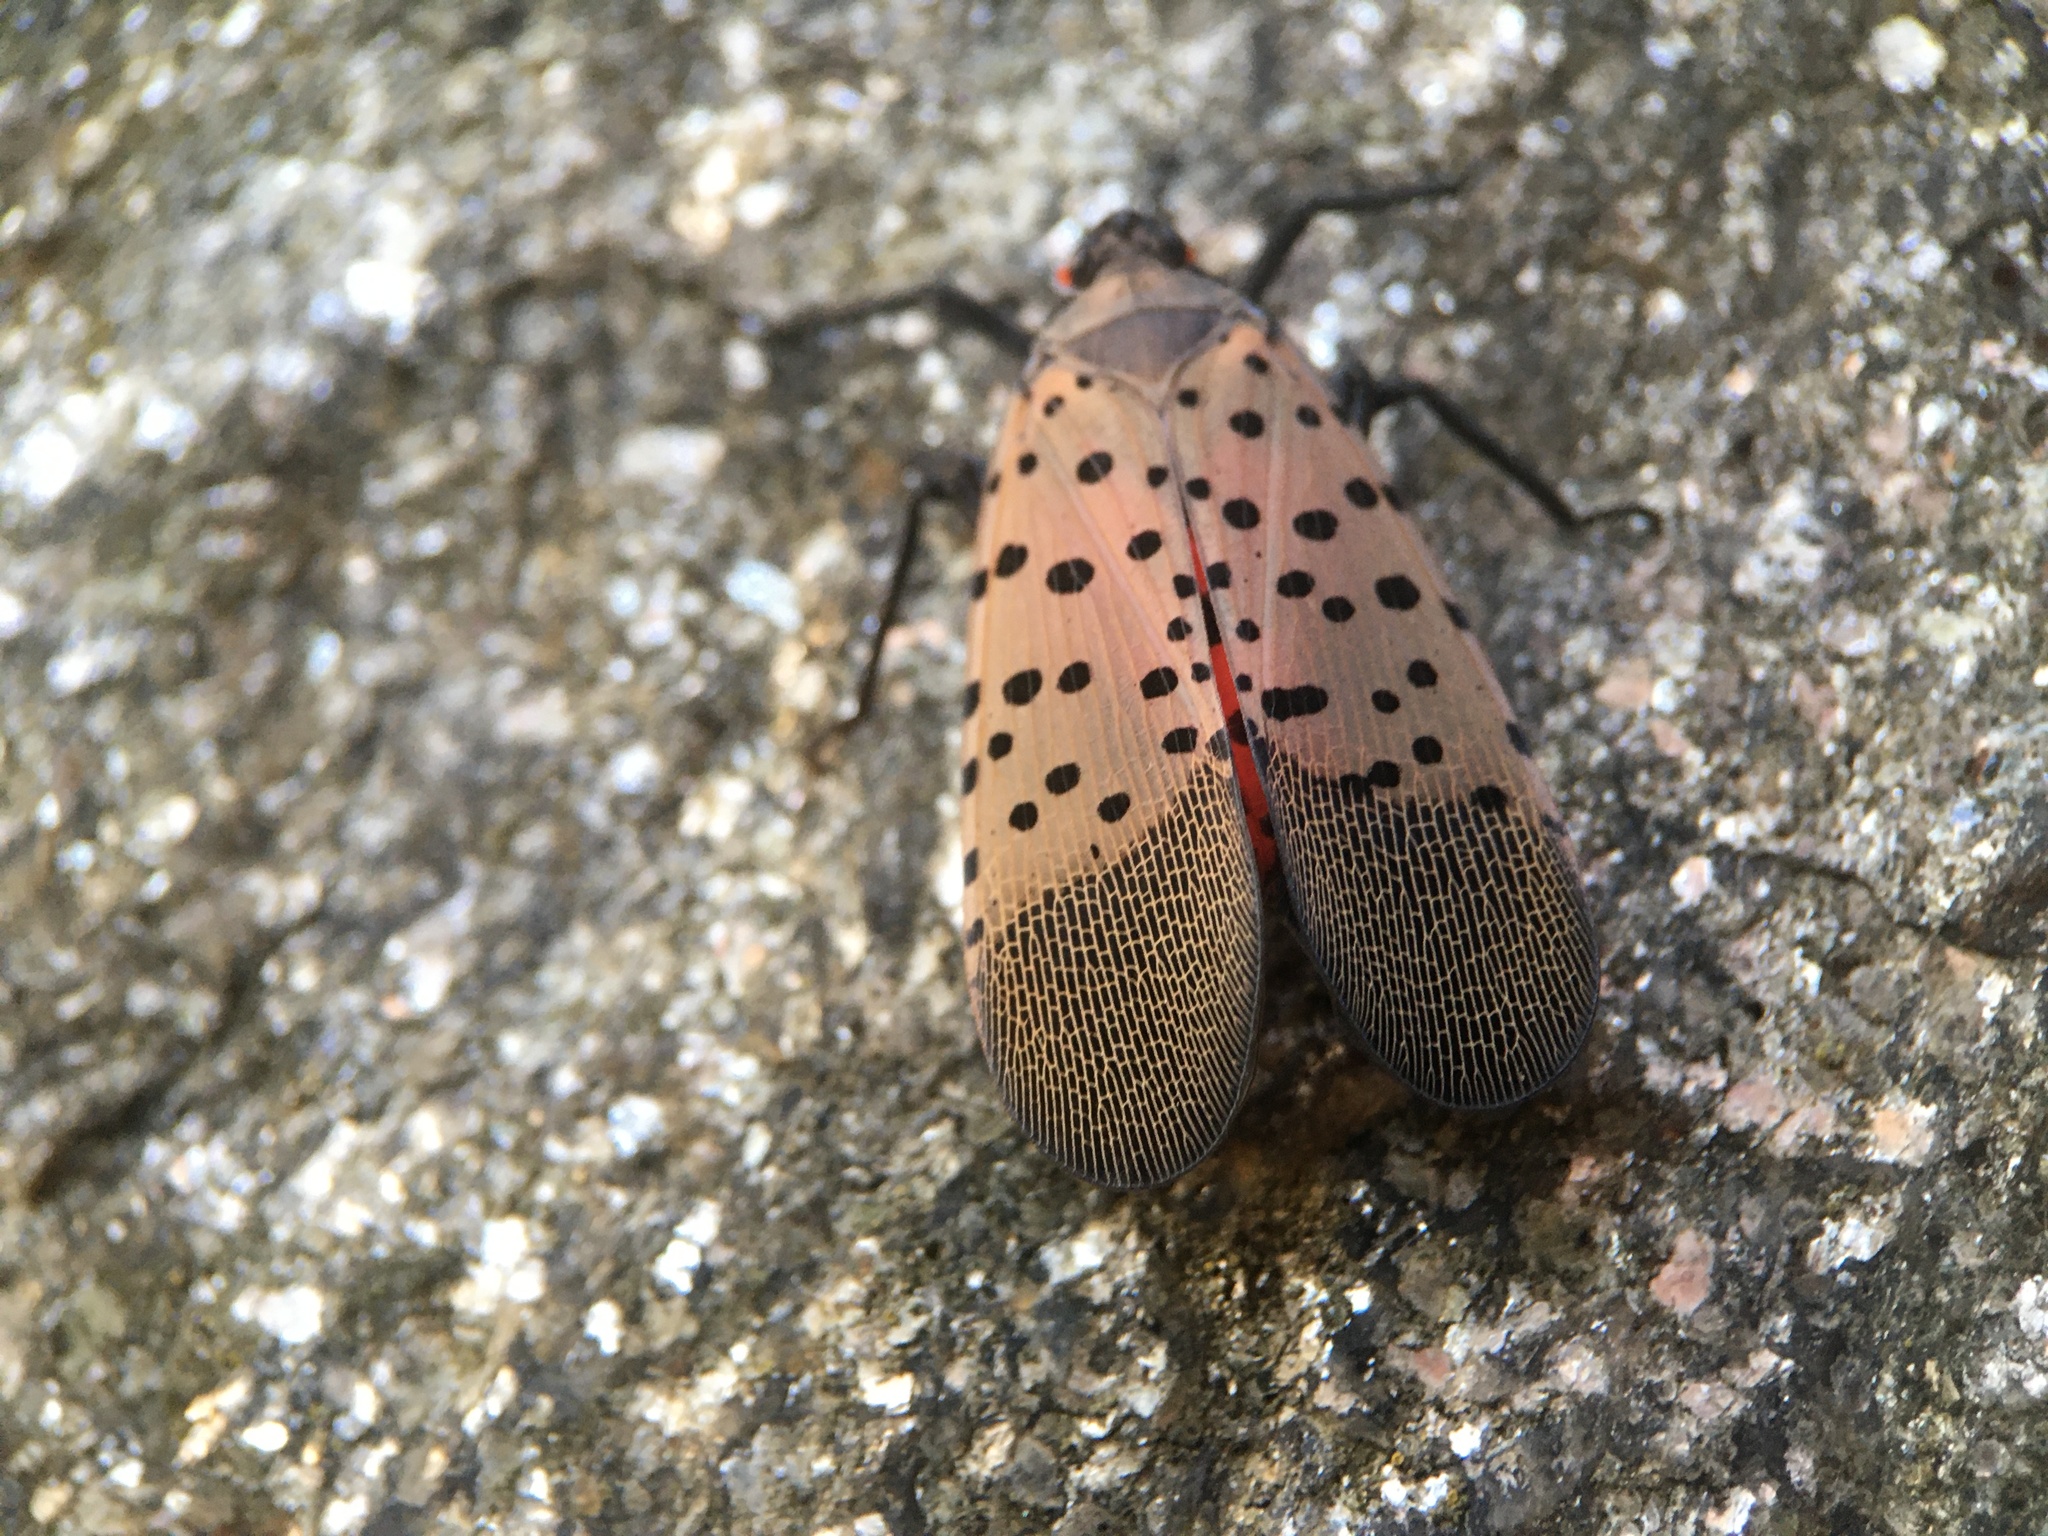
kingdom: Animalia
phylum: Arthropoda
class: Insecta
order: Hemiptera
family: Fulgoridae
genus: Lycorma
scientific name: Lycorma delicatula
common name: Spotted lanternfly
